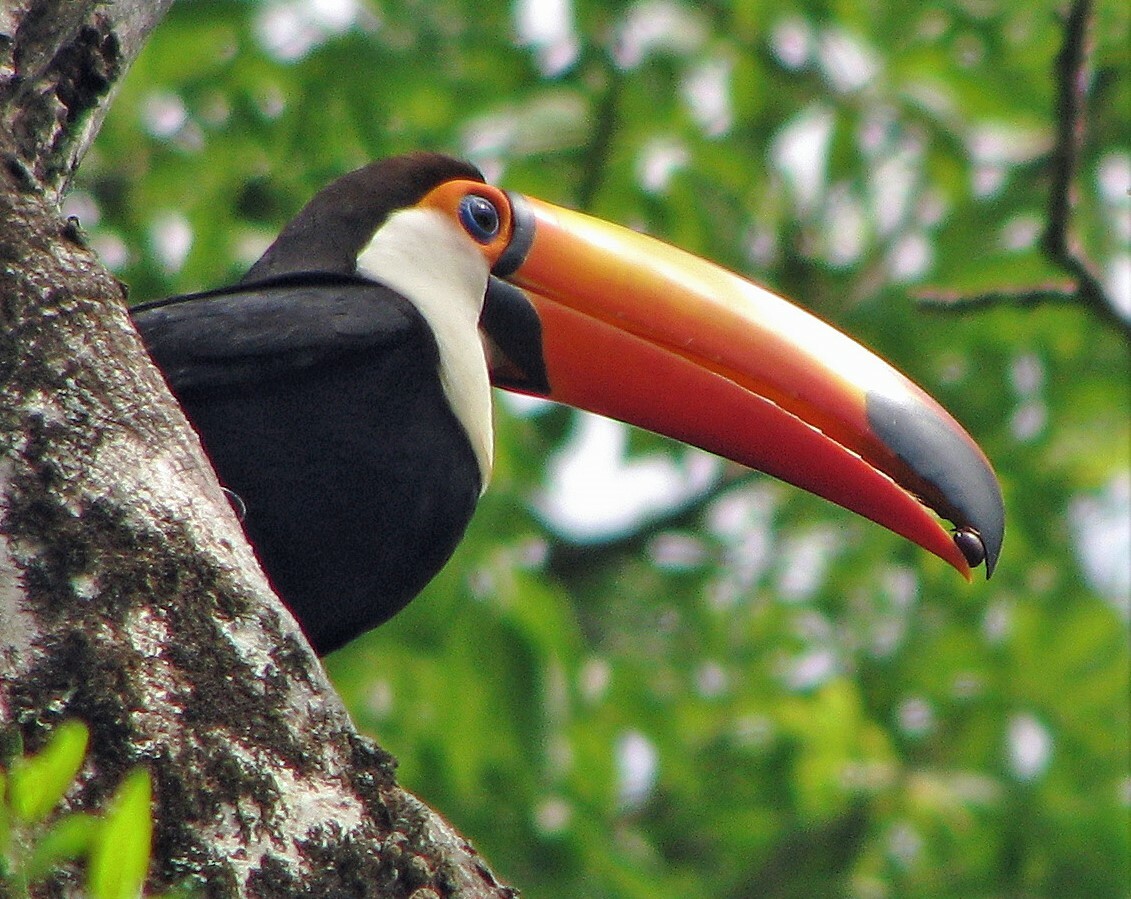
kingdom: Animalia
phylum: Chordata
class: Aves
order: Piciformes
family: Ramphastidae
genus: Ramphastos
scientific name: Ramphastos toco
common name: Toco toucan
